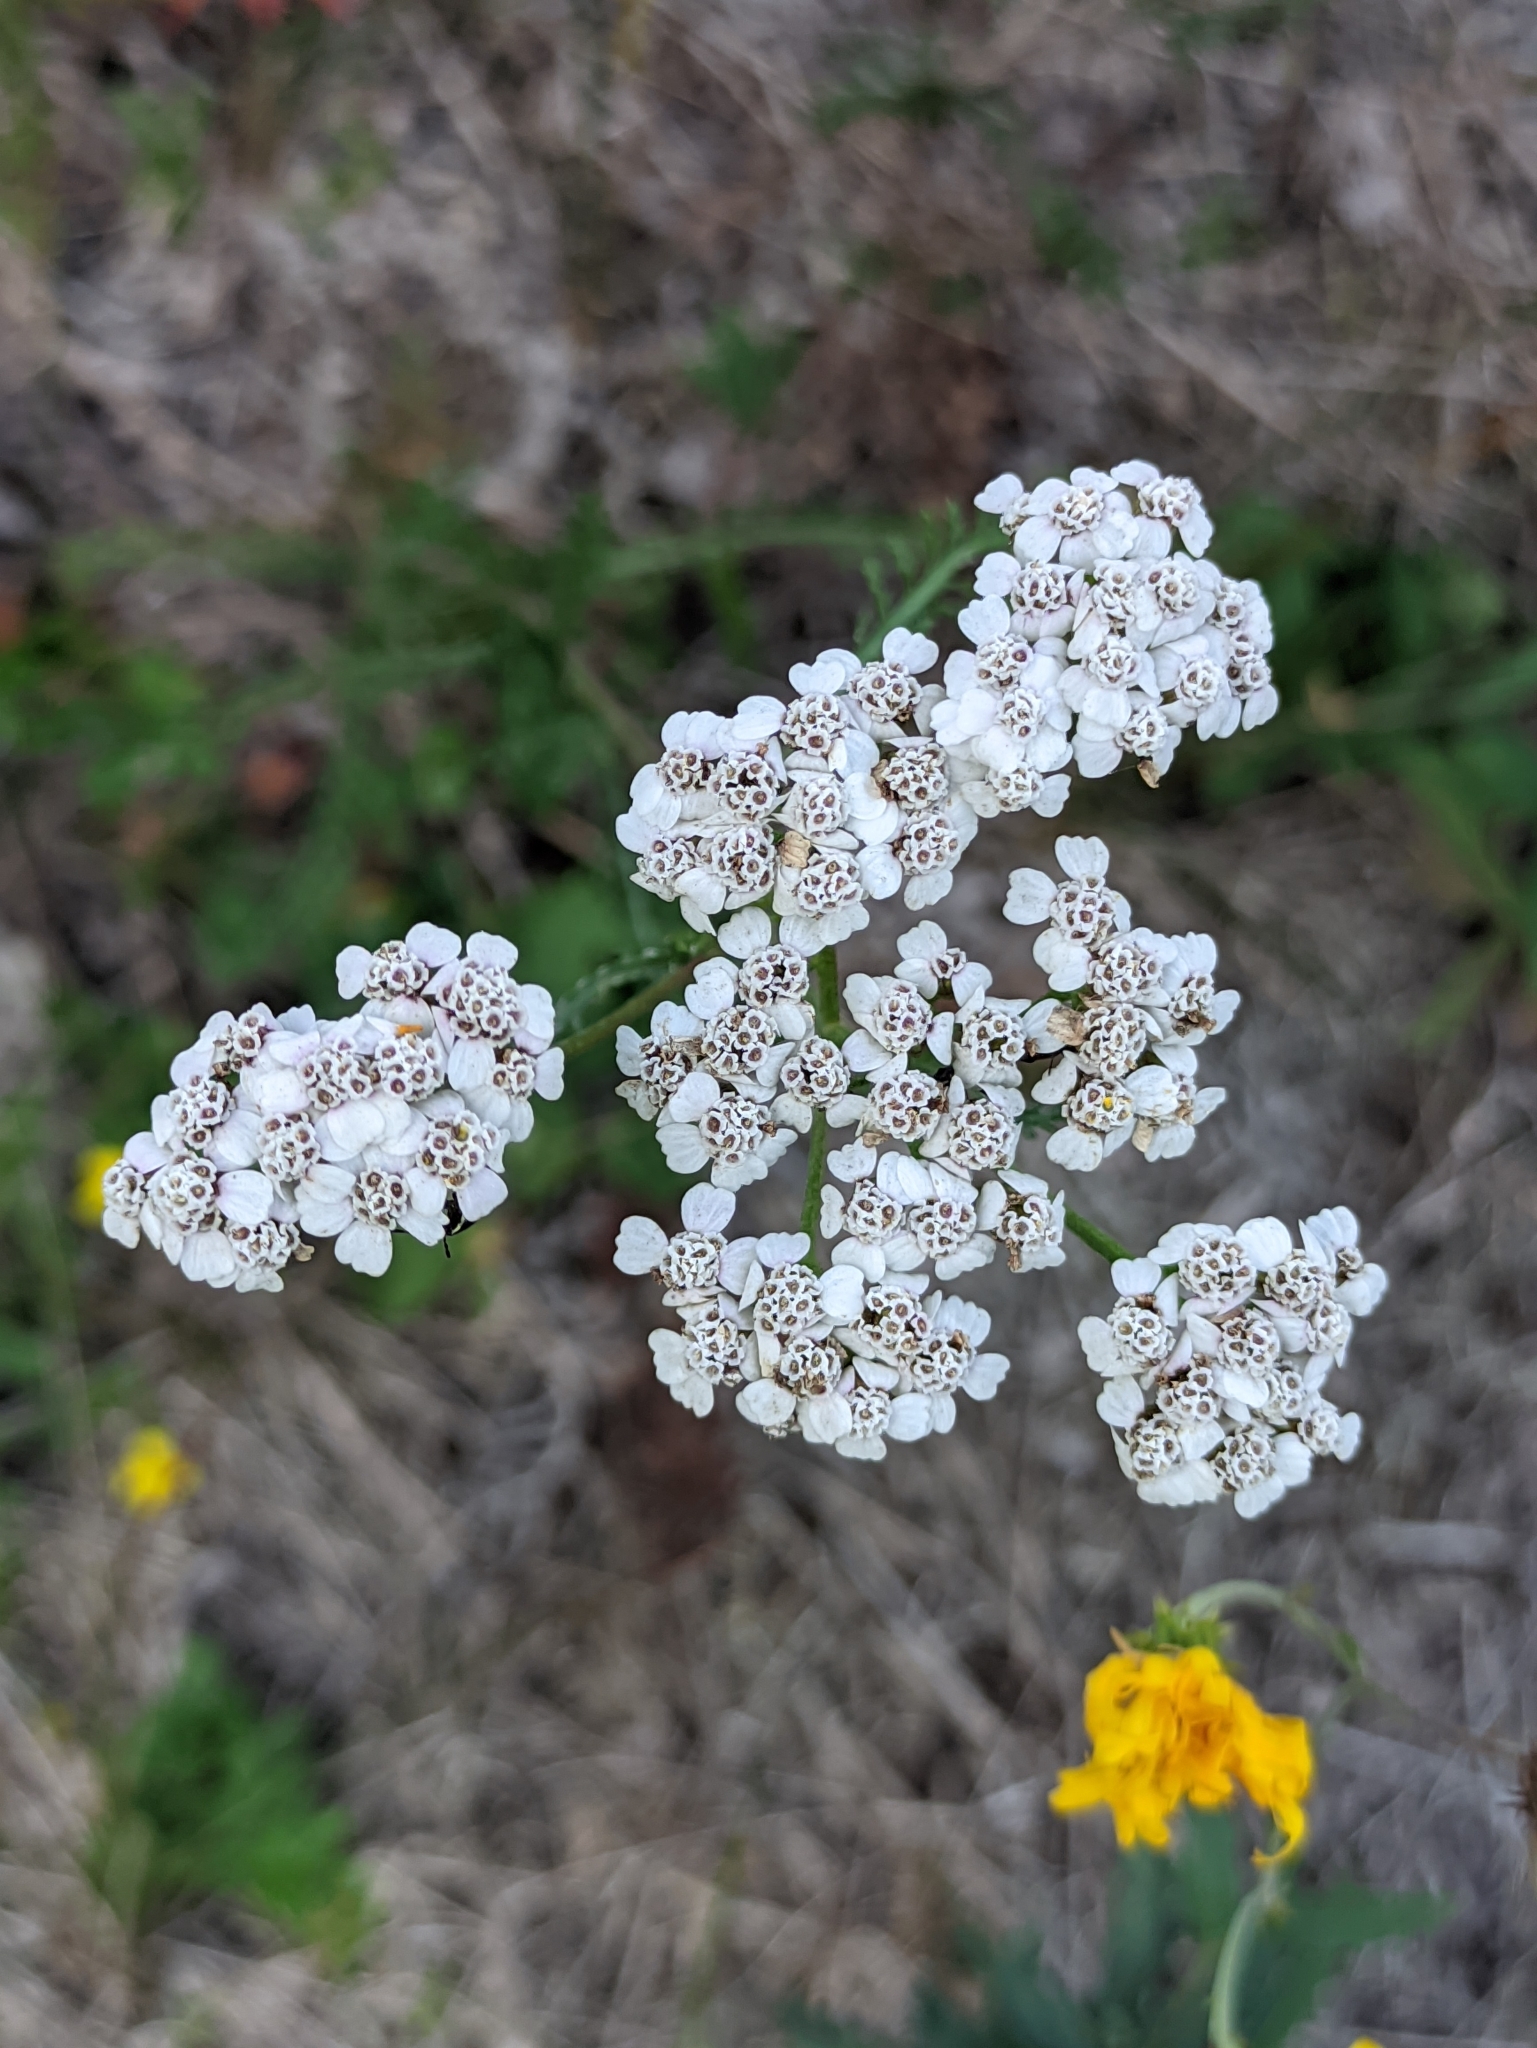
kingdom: Plantae
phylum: Tracheophyta
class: Magnoliopsida
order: Asterales
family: Asteraceae
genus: Achillea
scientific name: Achillea millefolium
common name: Yarrow
